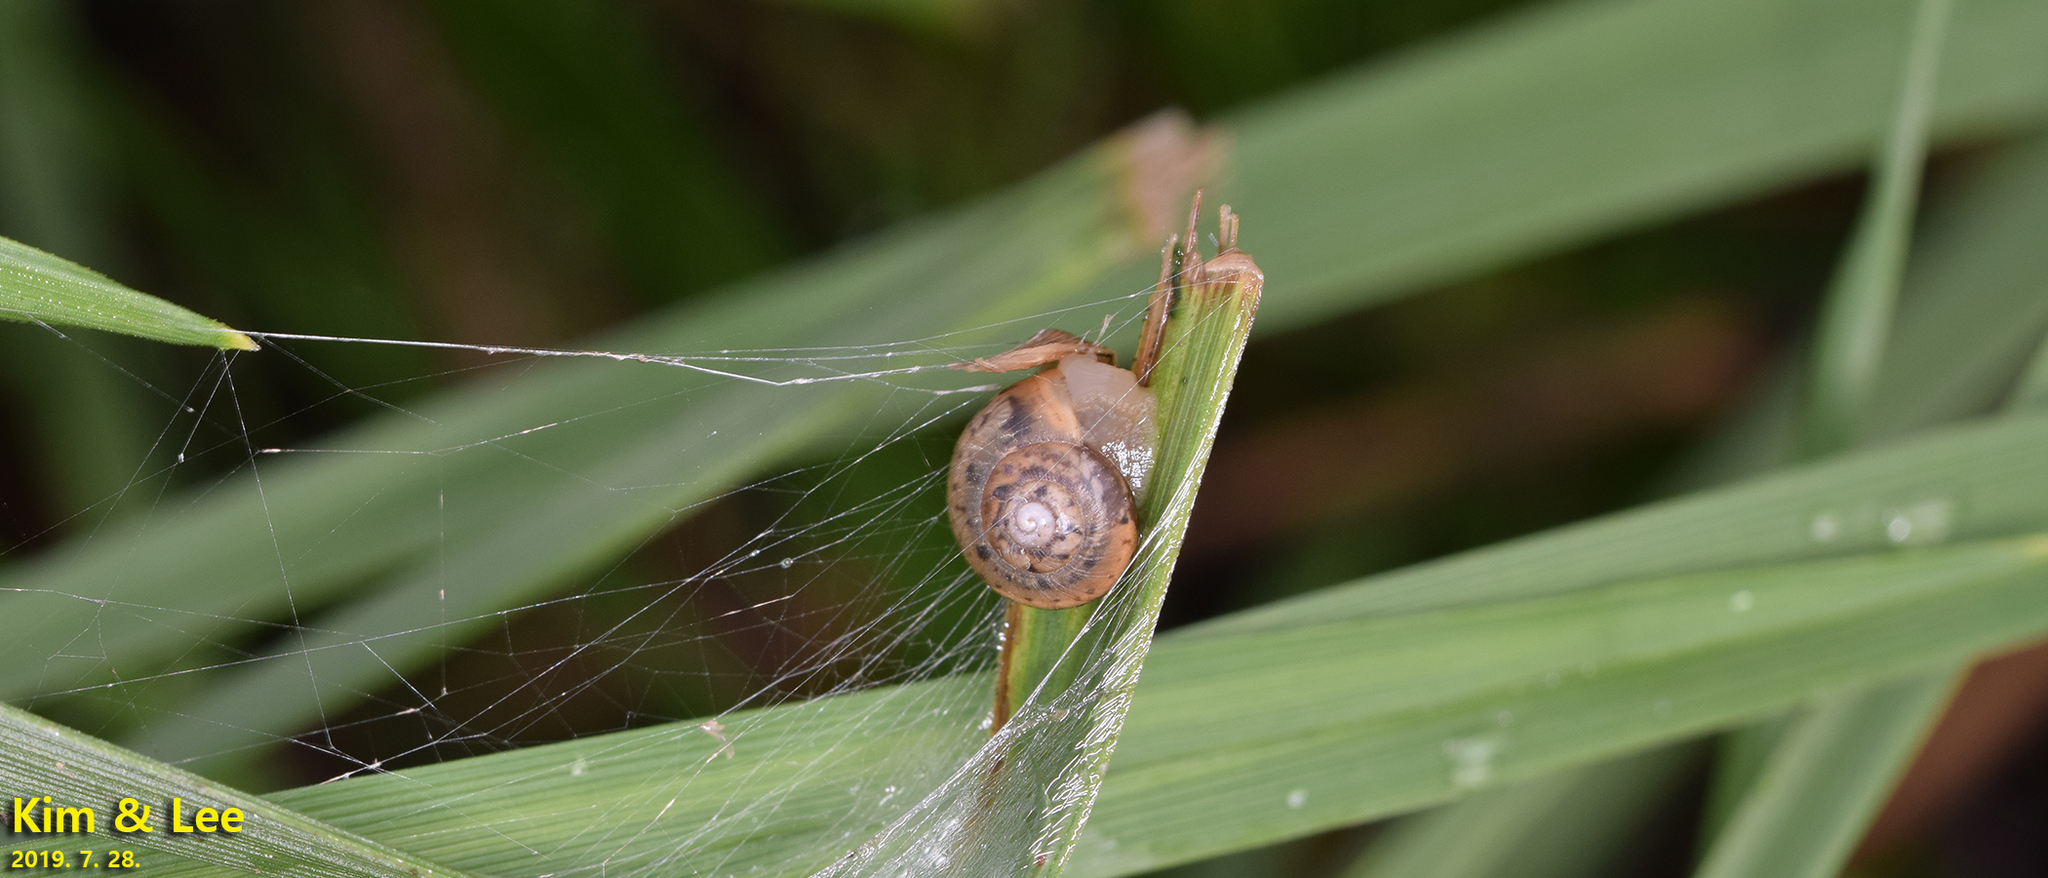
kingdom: Animalia
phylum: Mollusca
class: Gastropoda
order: Stylommatophora
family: Camaenidae
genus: Acusta
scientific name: Acusta redfieldi
